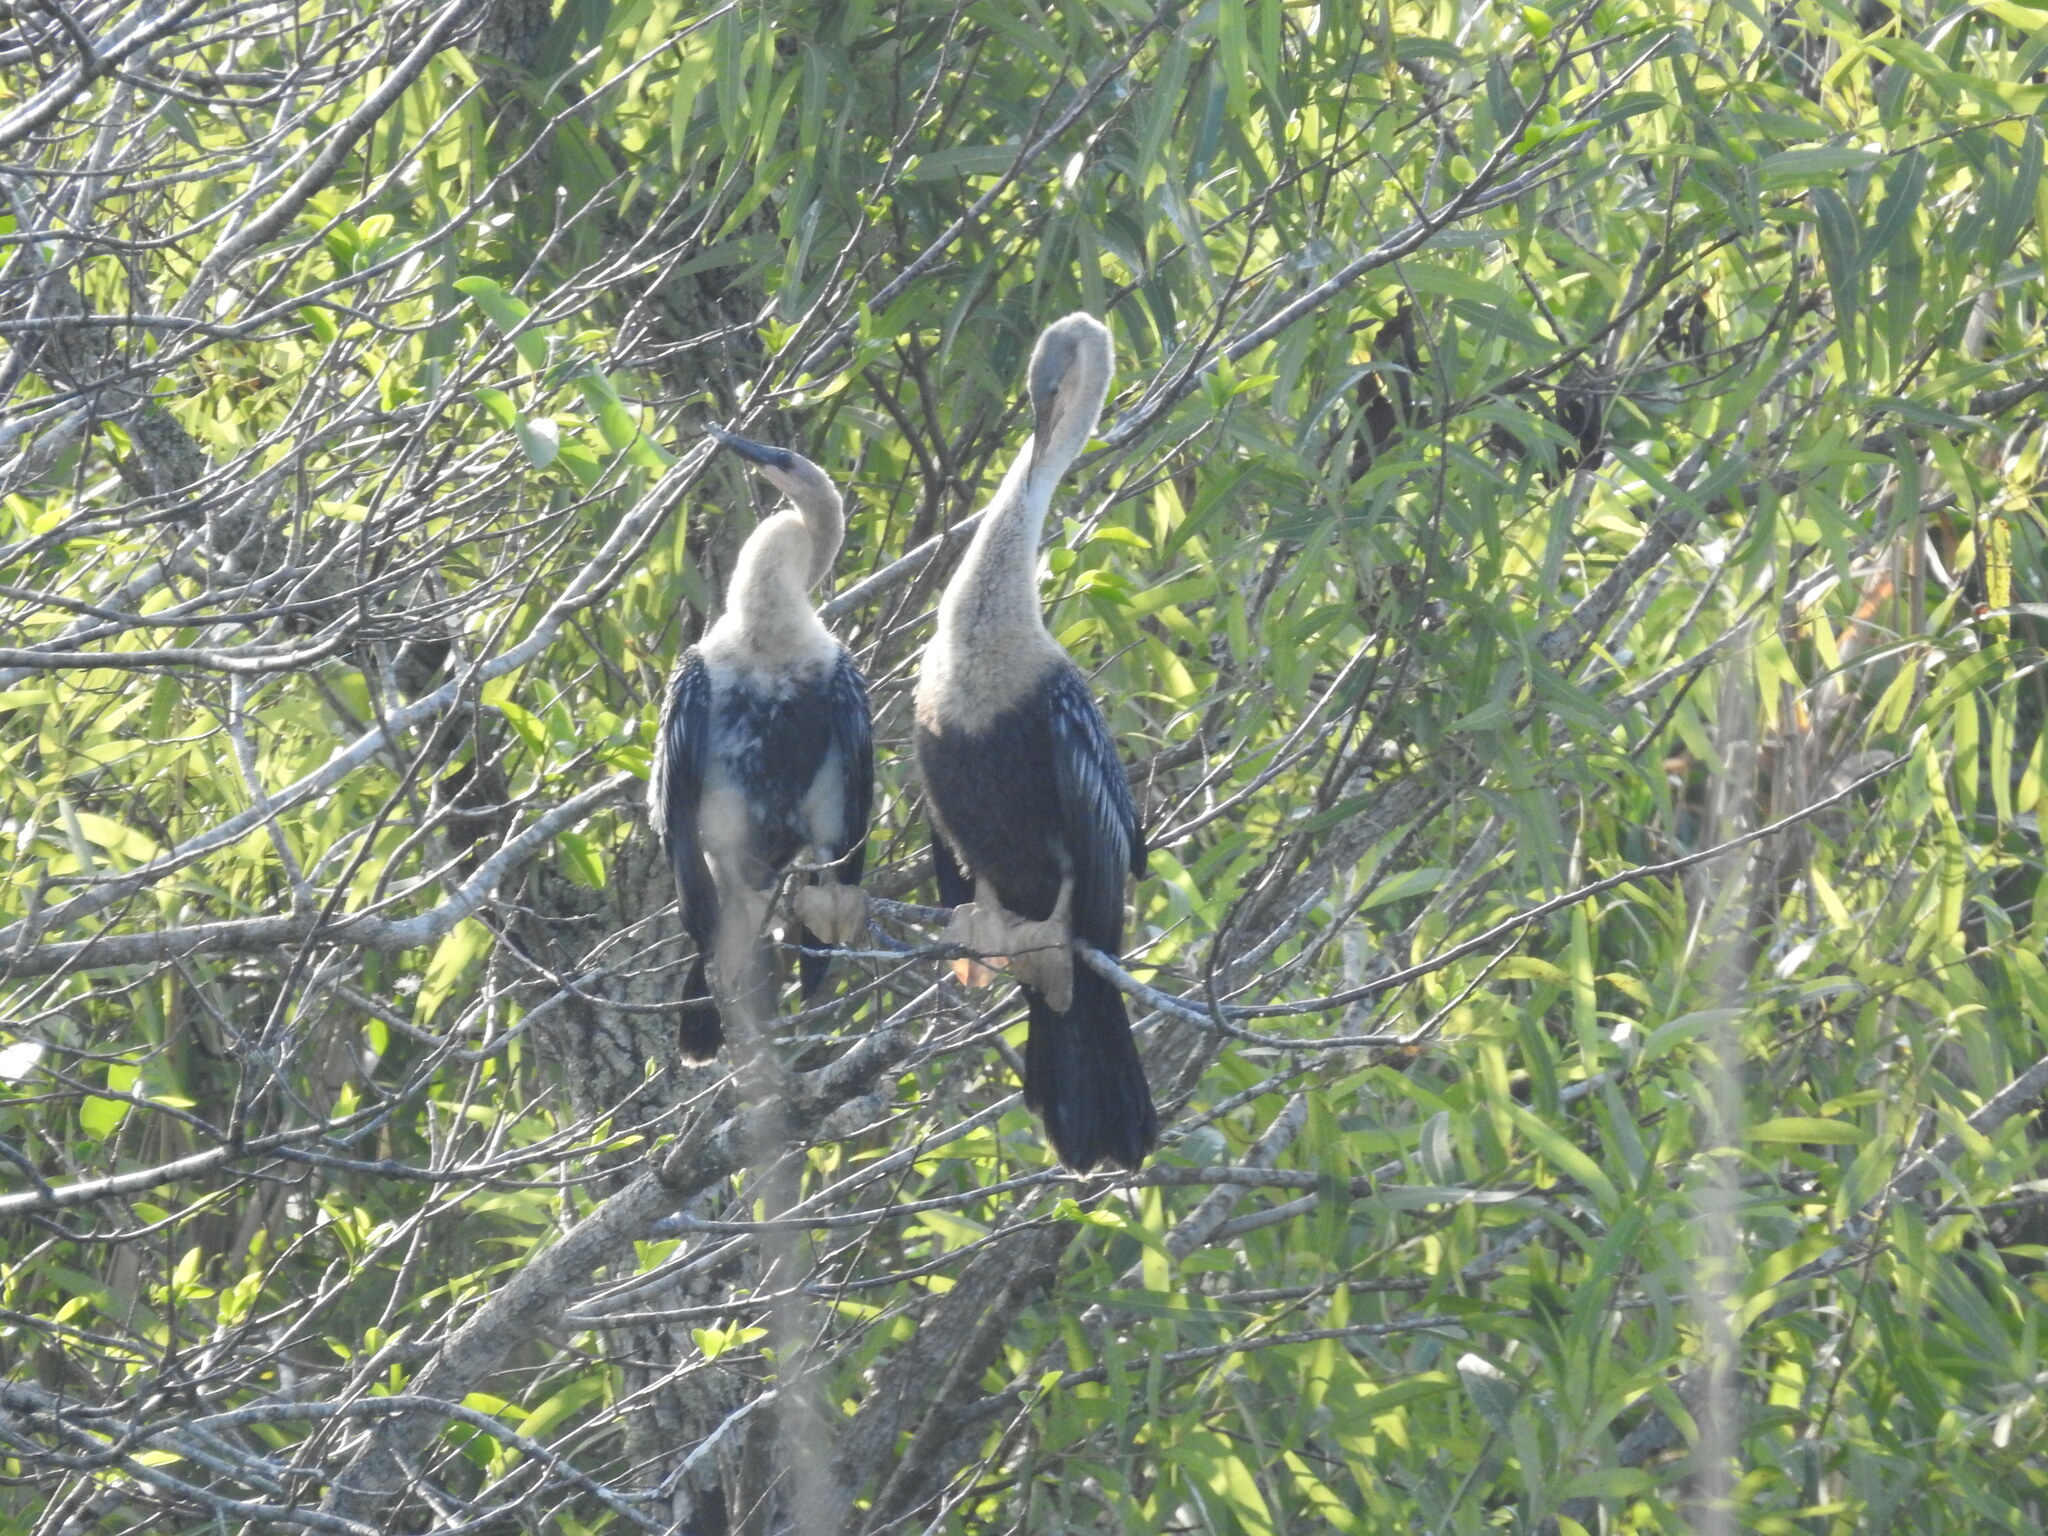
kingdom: Animalia
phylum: Chordata
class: Aves
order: Suliformes
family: Anhingidae
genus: Anhinga
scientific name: Anhinga anhinga
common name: Anhinga
